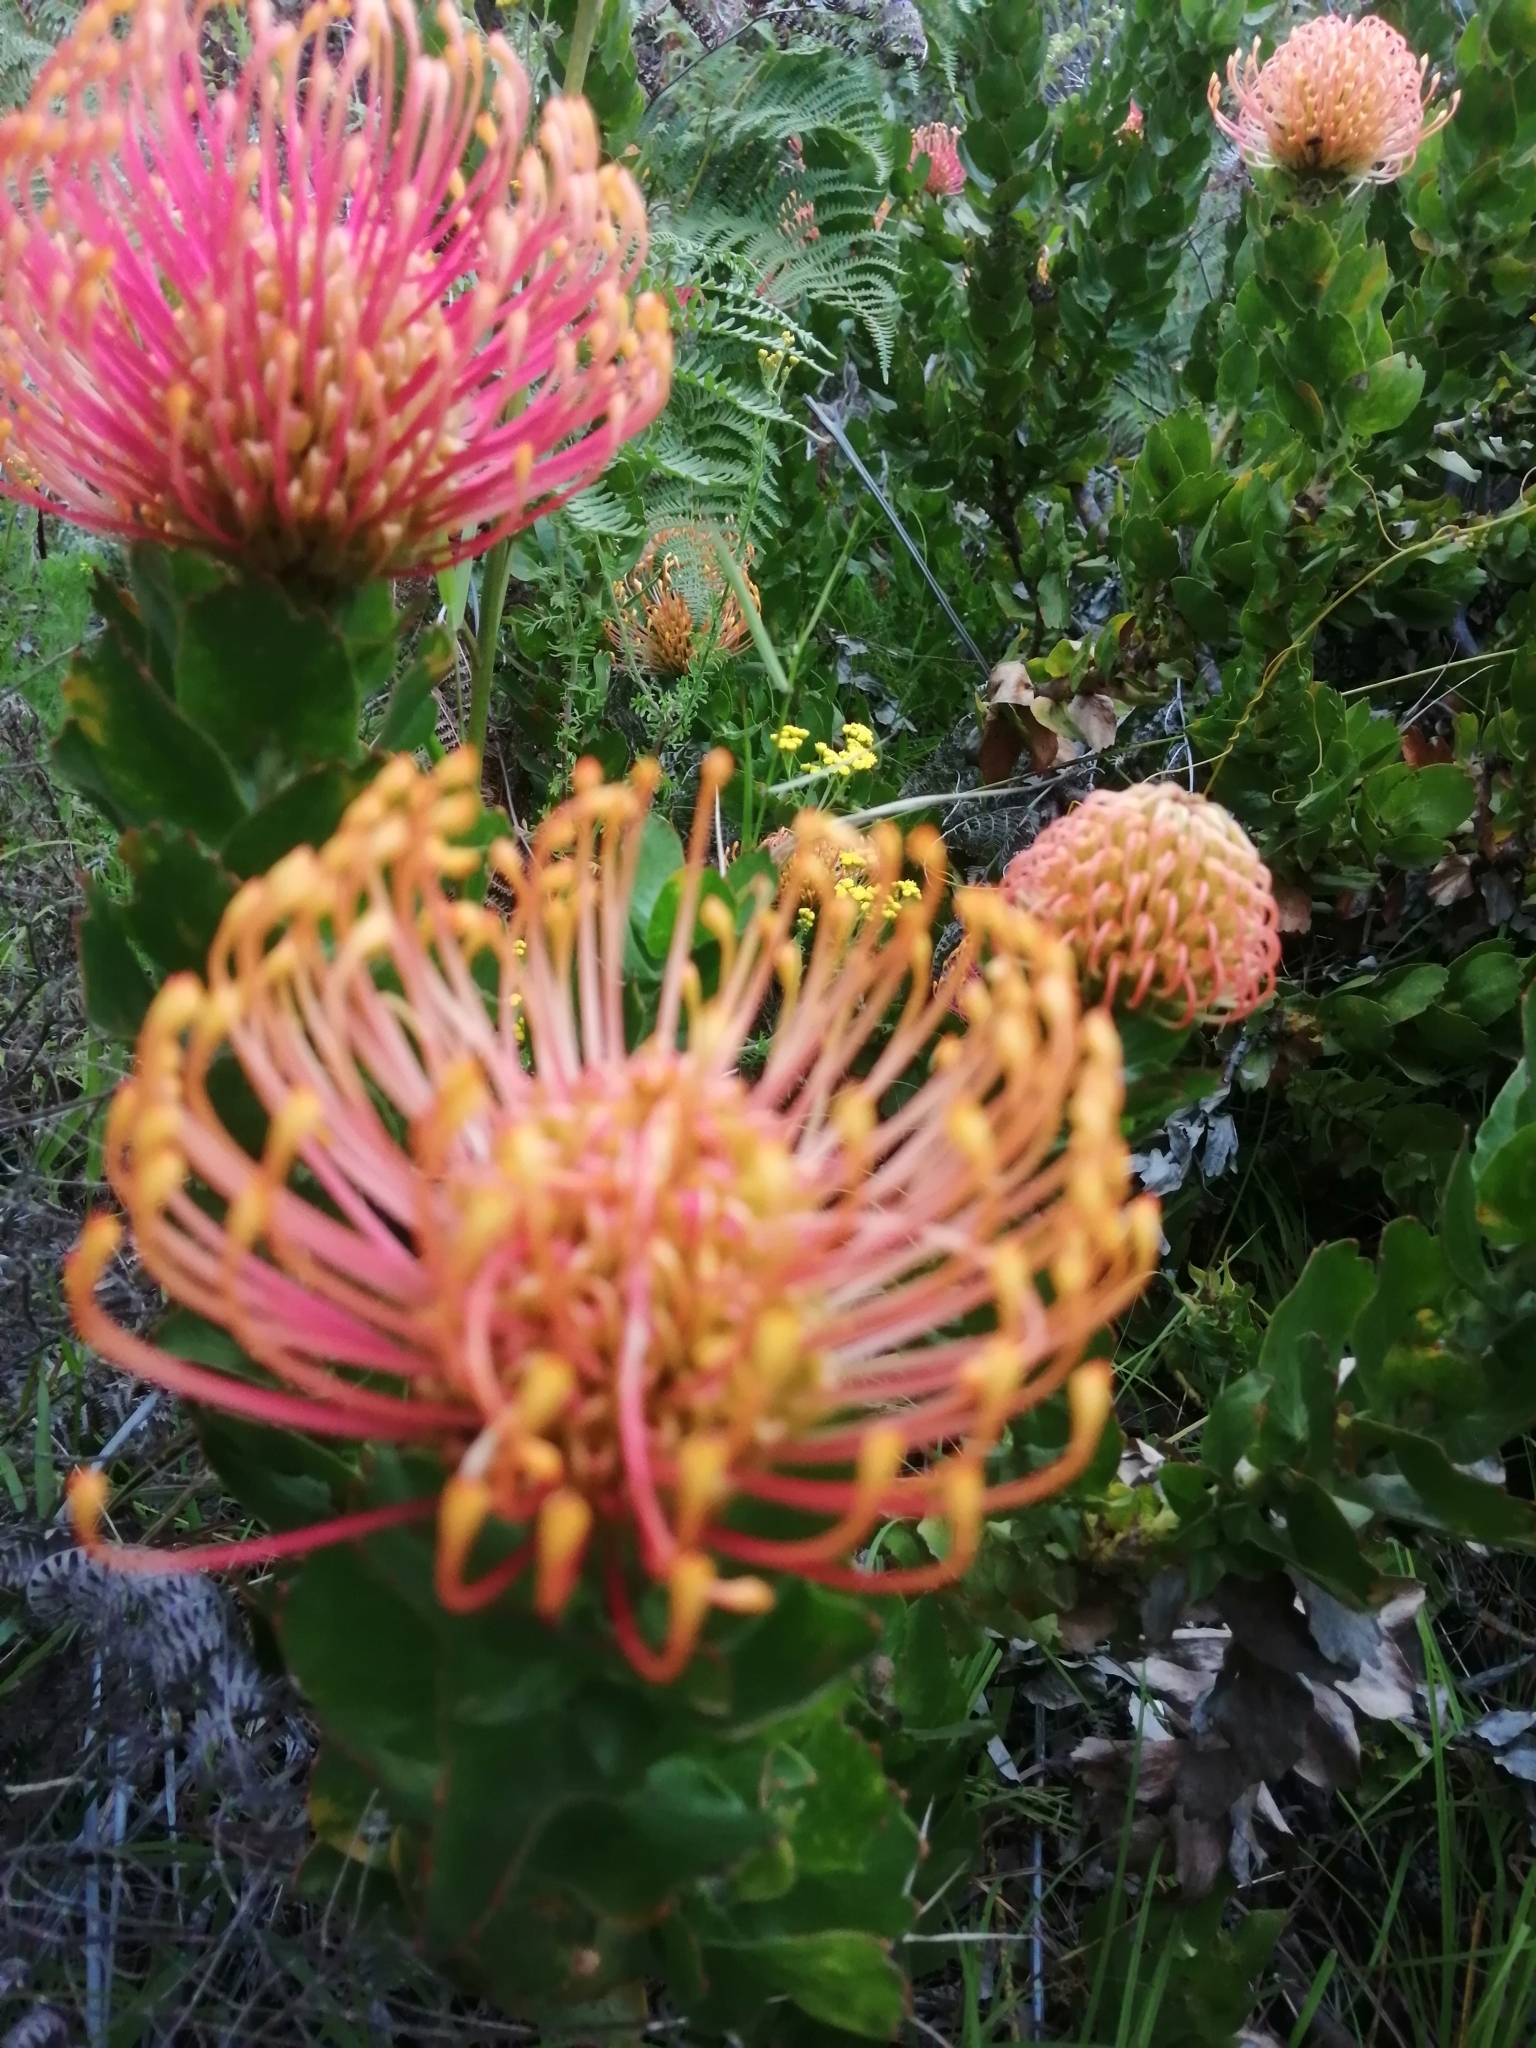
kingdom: Plantae
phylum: Tracheophyta
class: Magnoliopsida
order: Proteales
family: Proteaceae
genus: Leucospermum
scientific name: Leucospermum patersonii
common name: False tree pincushion
